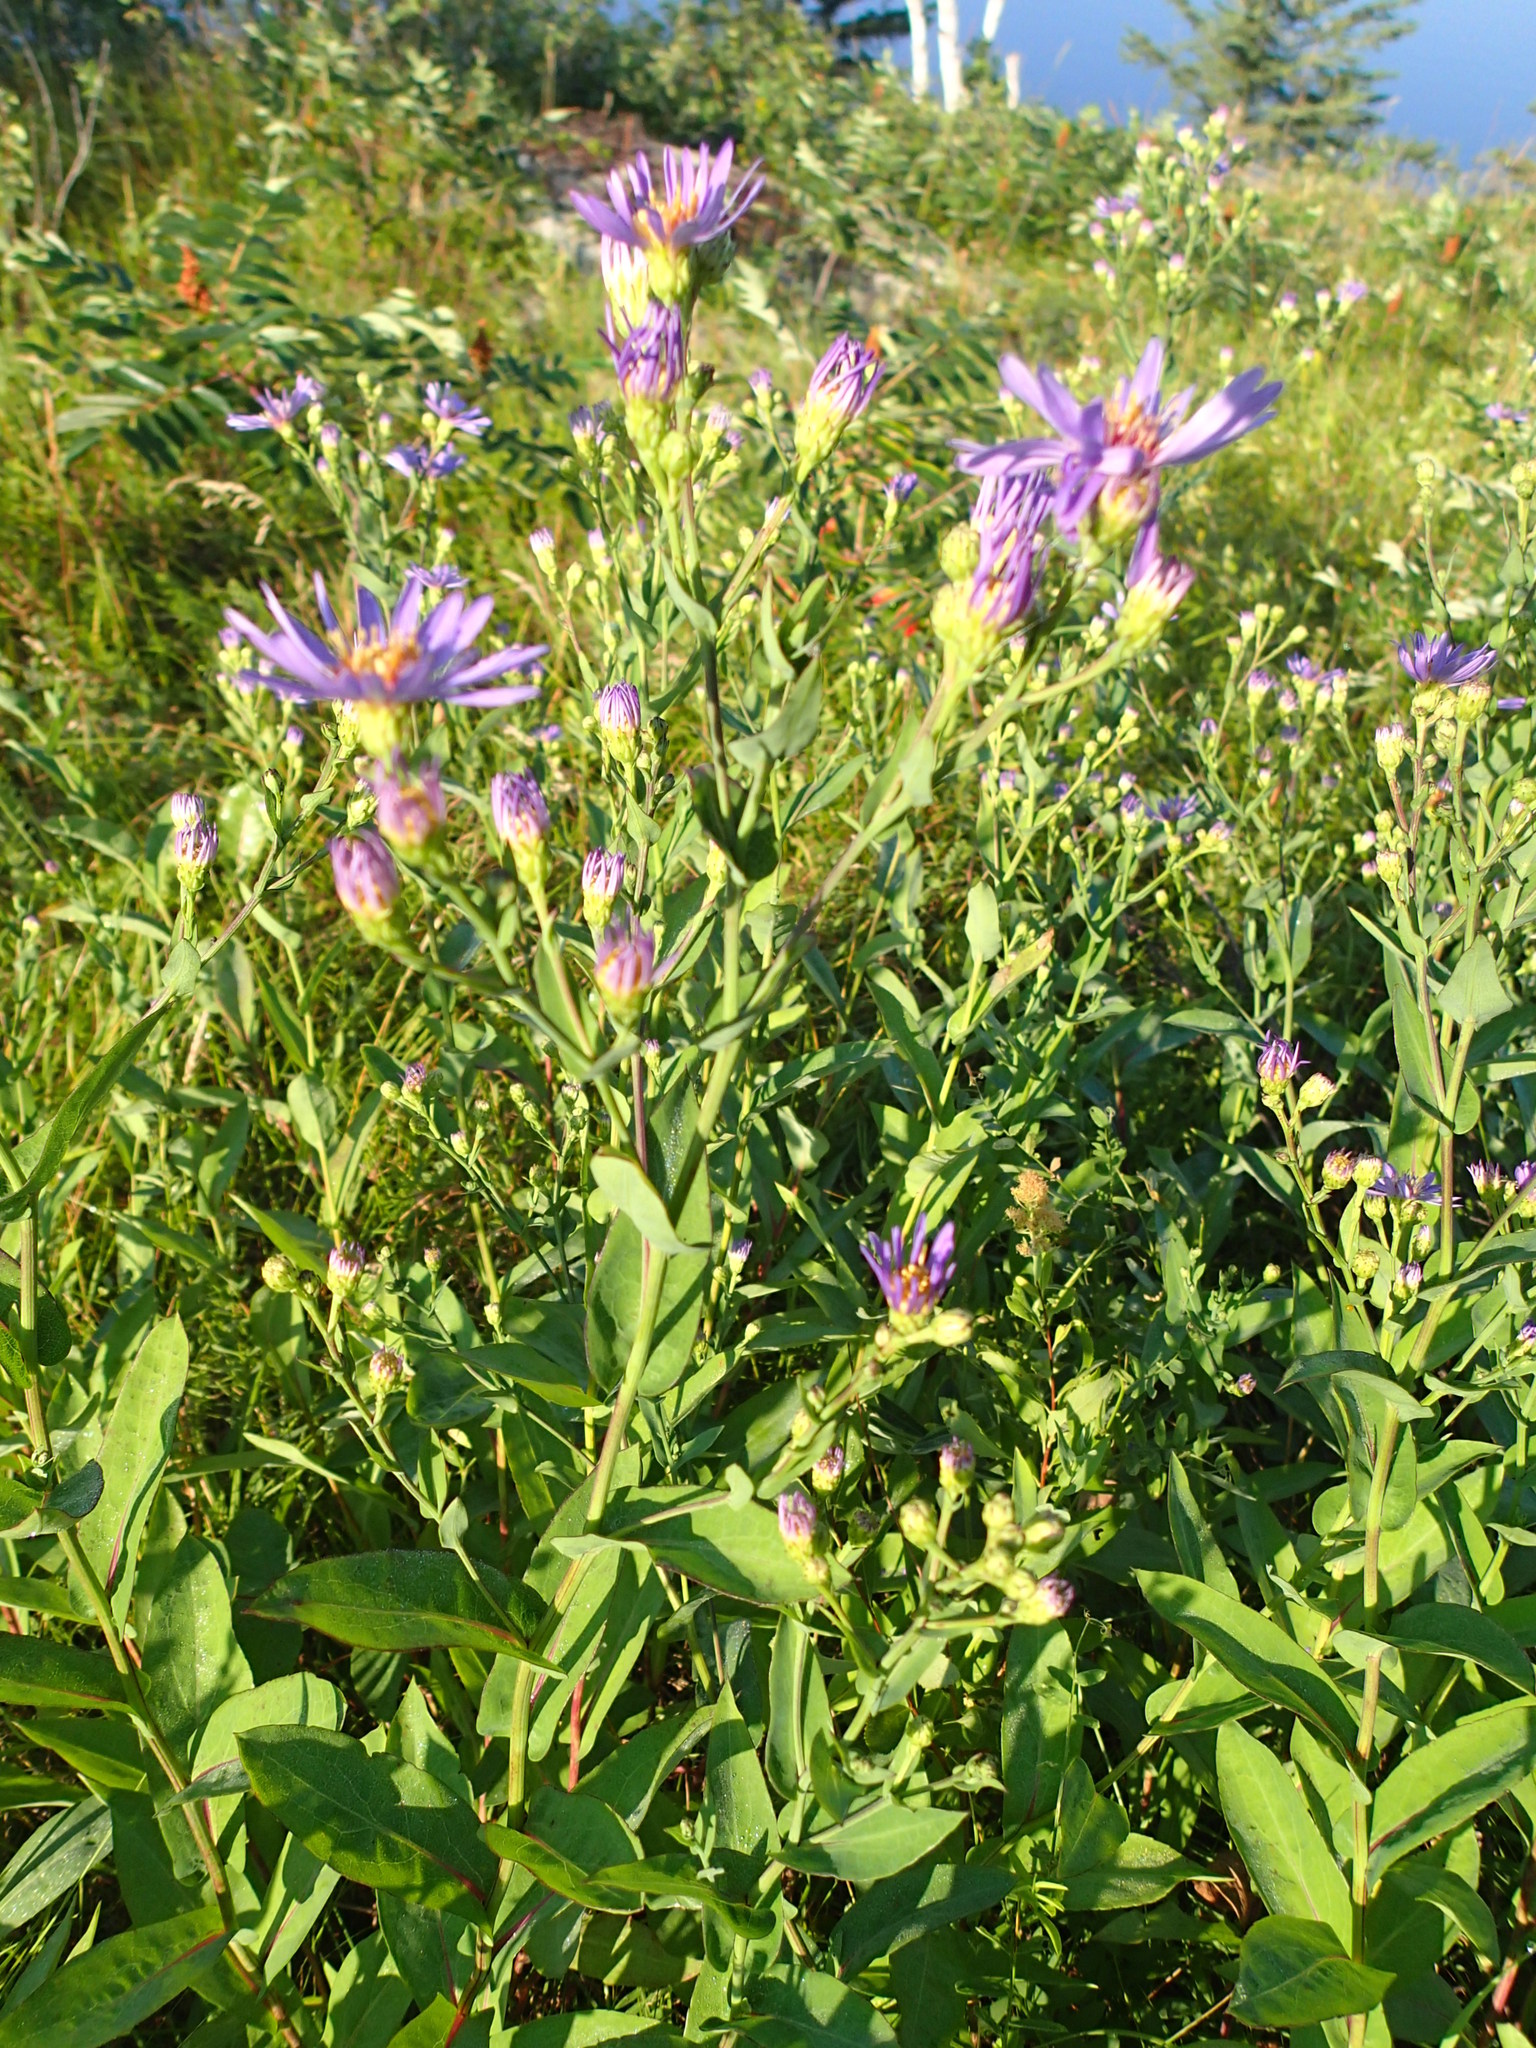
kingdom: Plantae
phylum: Tracheophyta
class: Magnoliopsida
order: Asterales
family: Asteraceae
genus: Symphyotrichum
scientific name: Symphyotrichum laeve
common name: Glaucous aster
